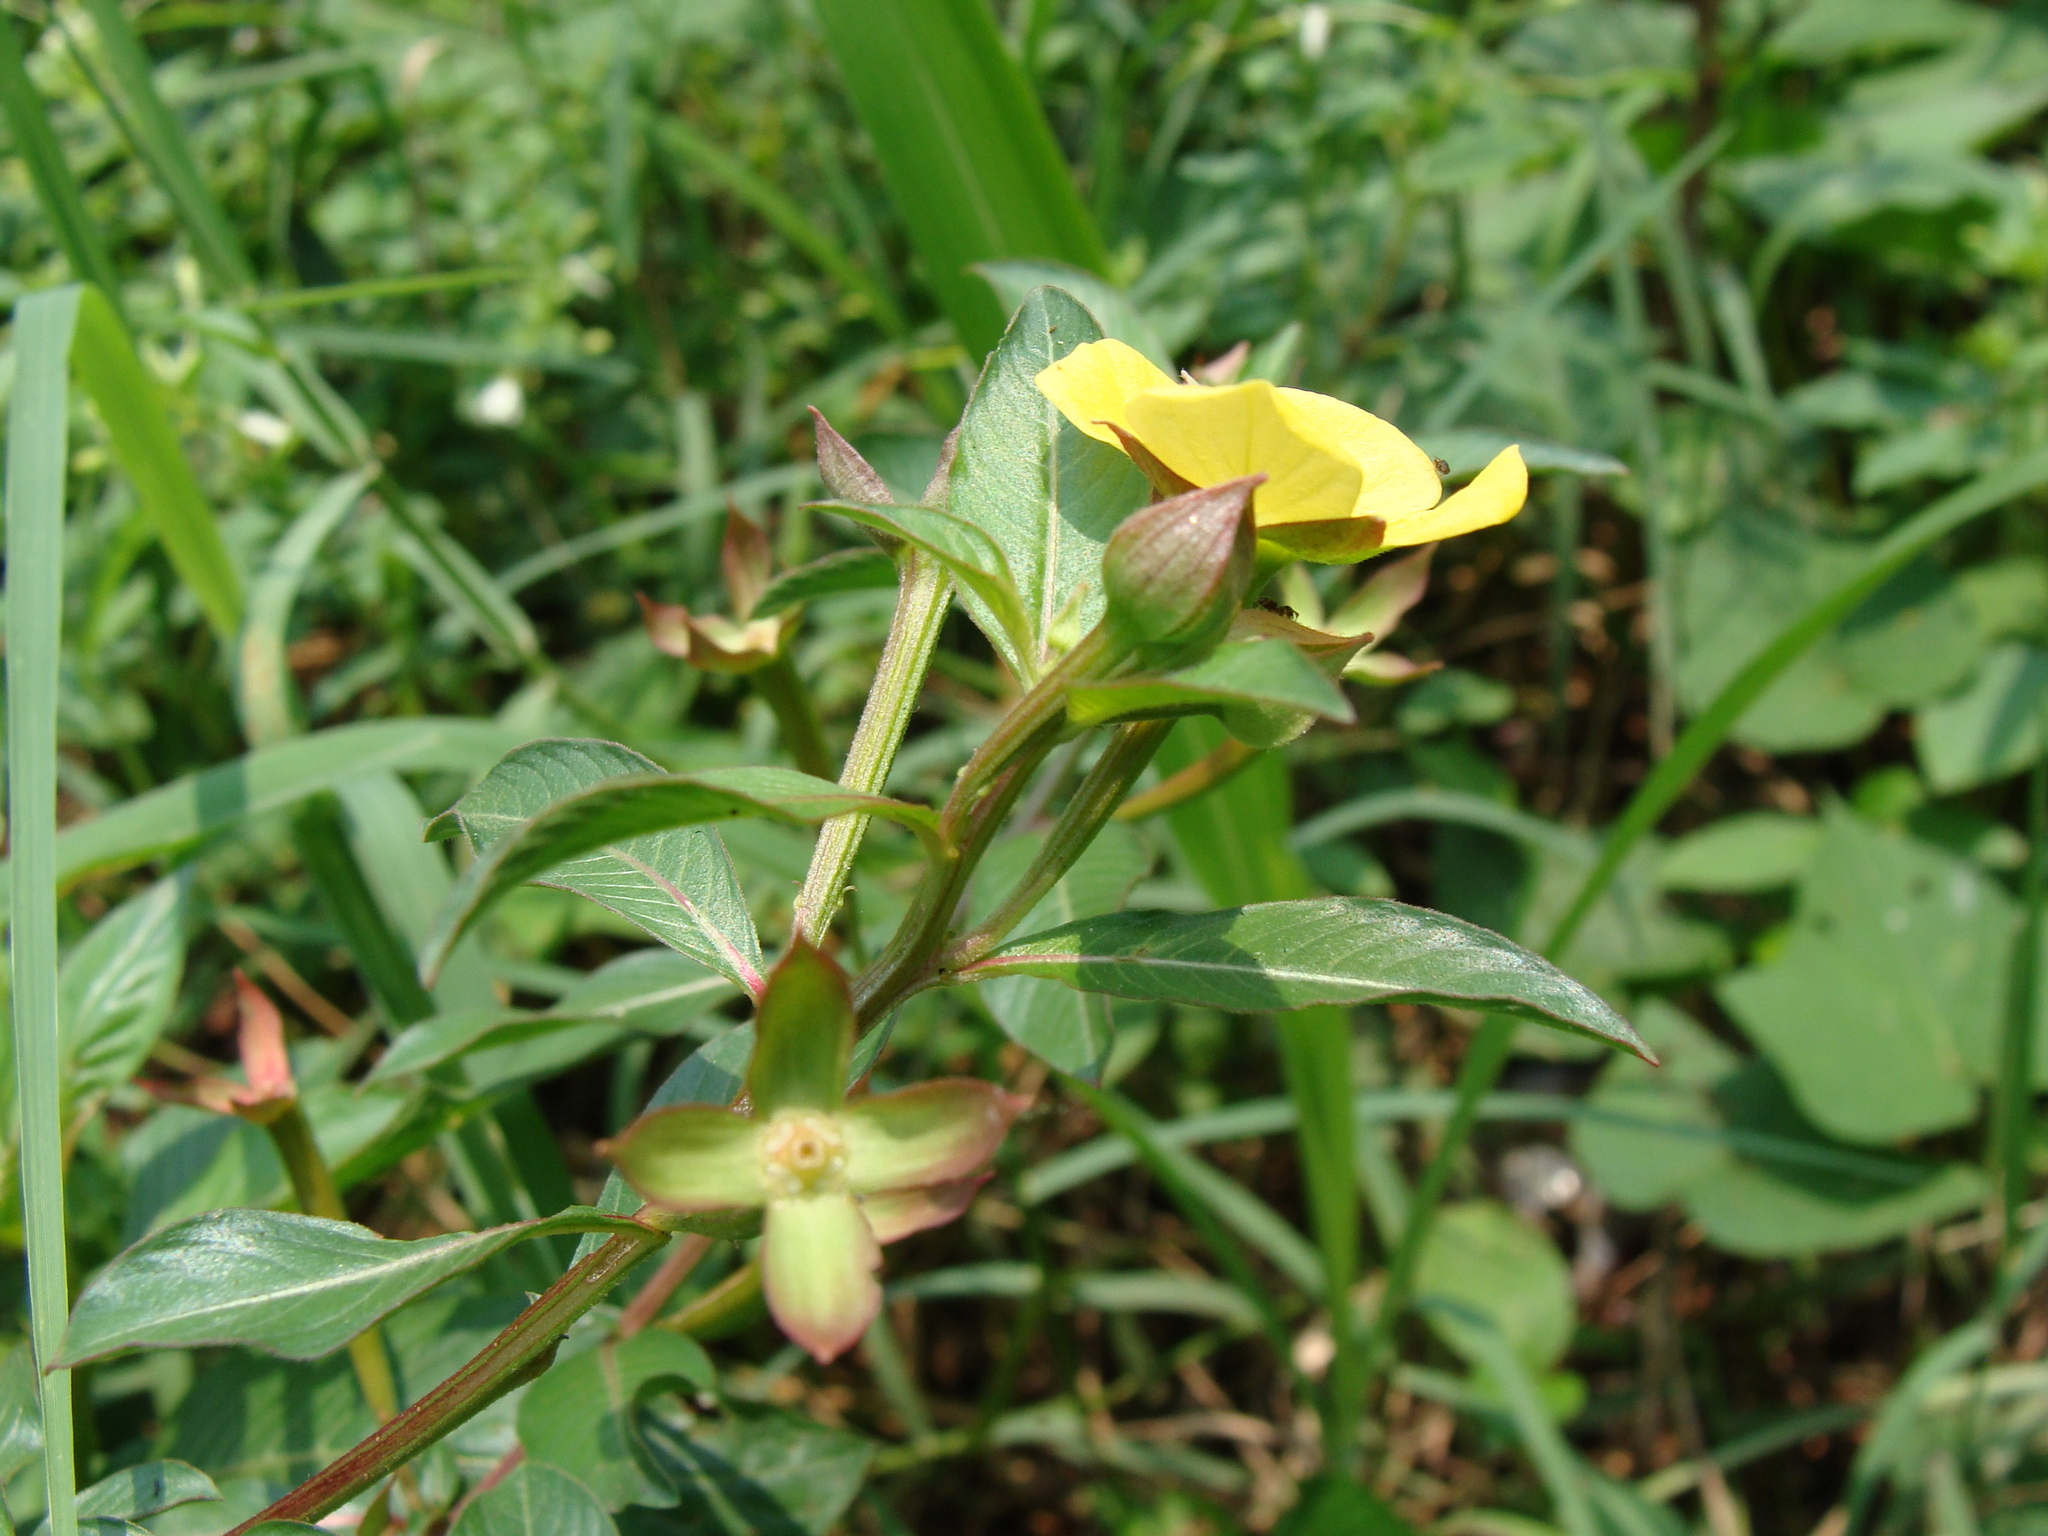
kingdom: Plantae
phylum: Tracheophyta
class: Magnoliopsida
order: Myrtales
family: Onagraceae
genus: Ludwigia
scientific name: Ludwigia octovalvis
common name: Water-primrose
